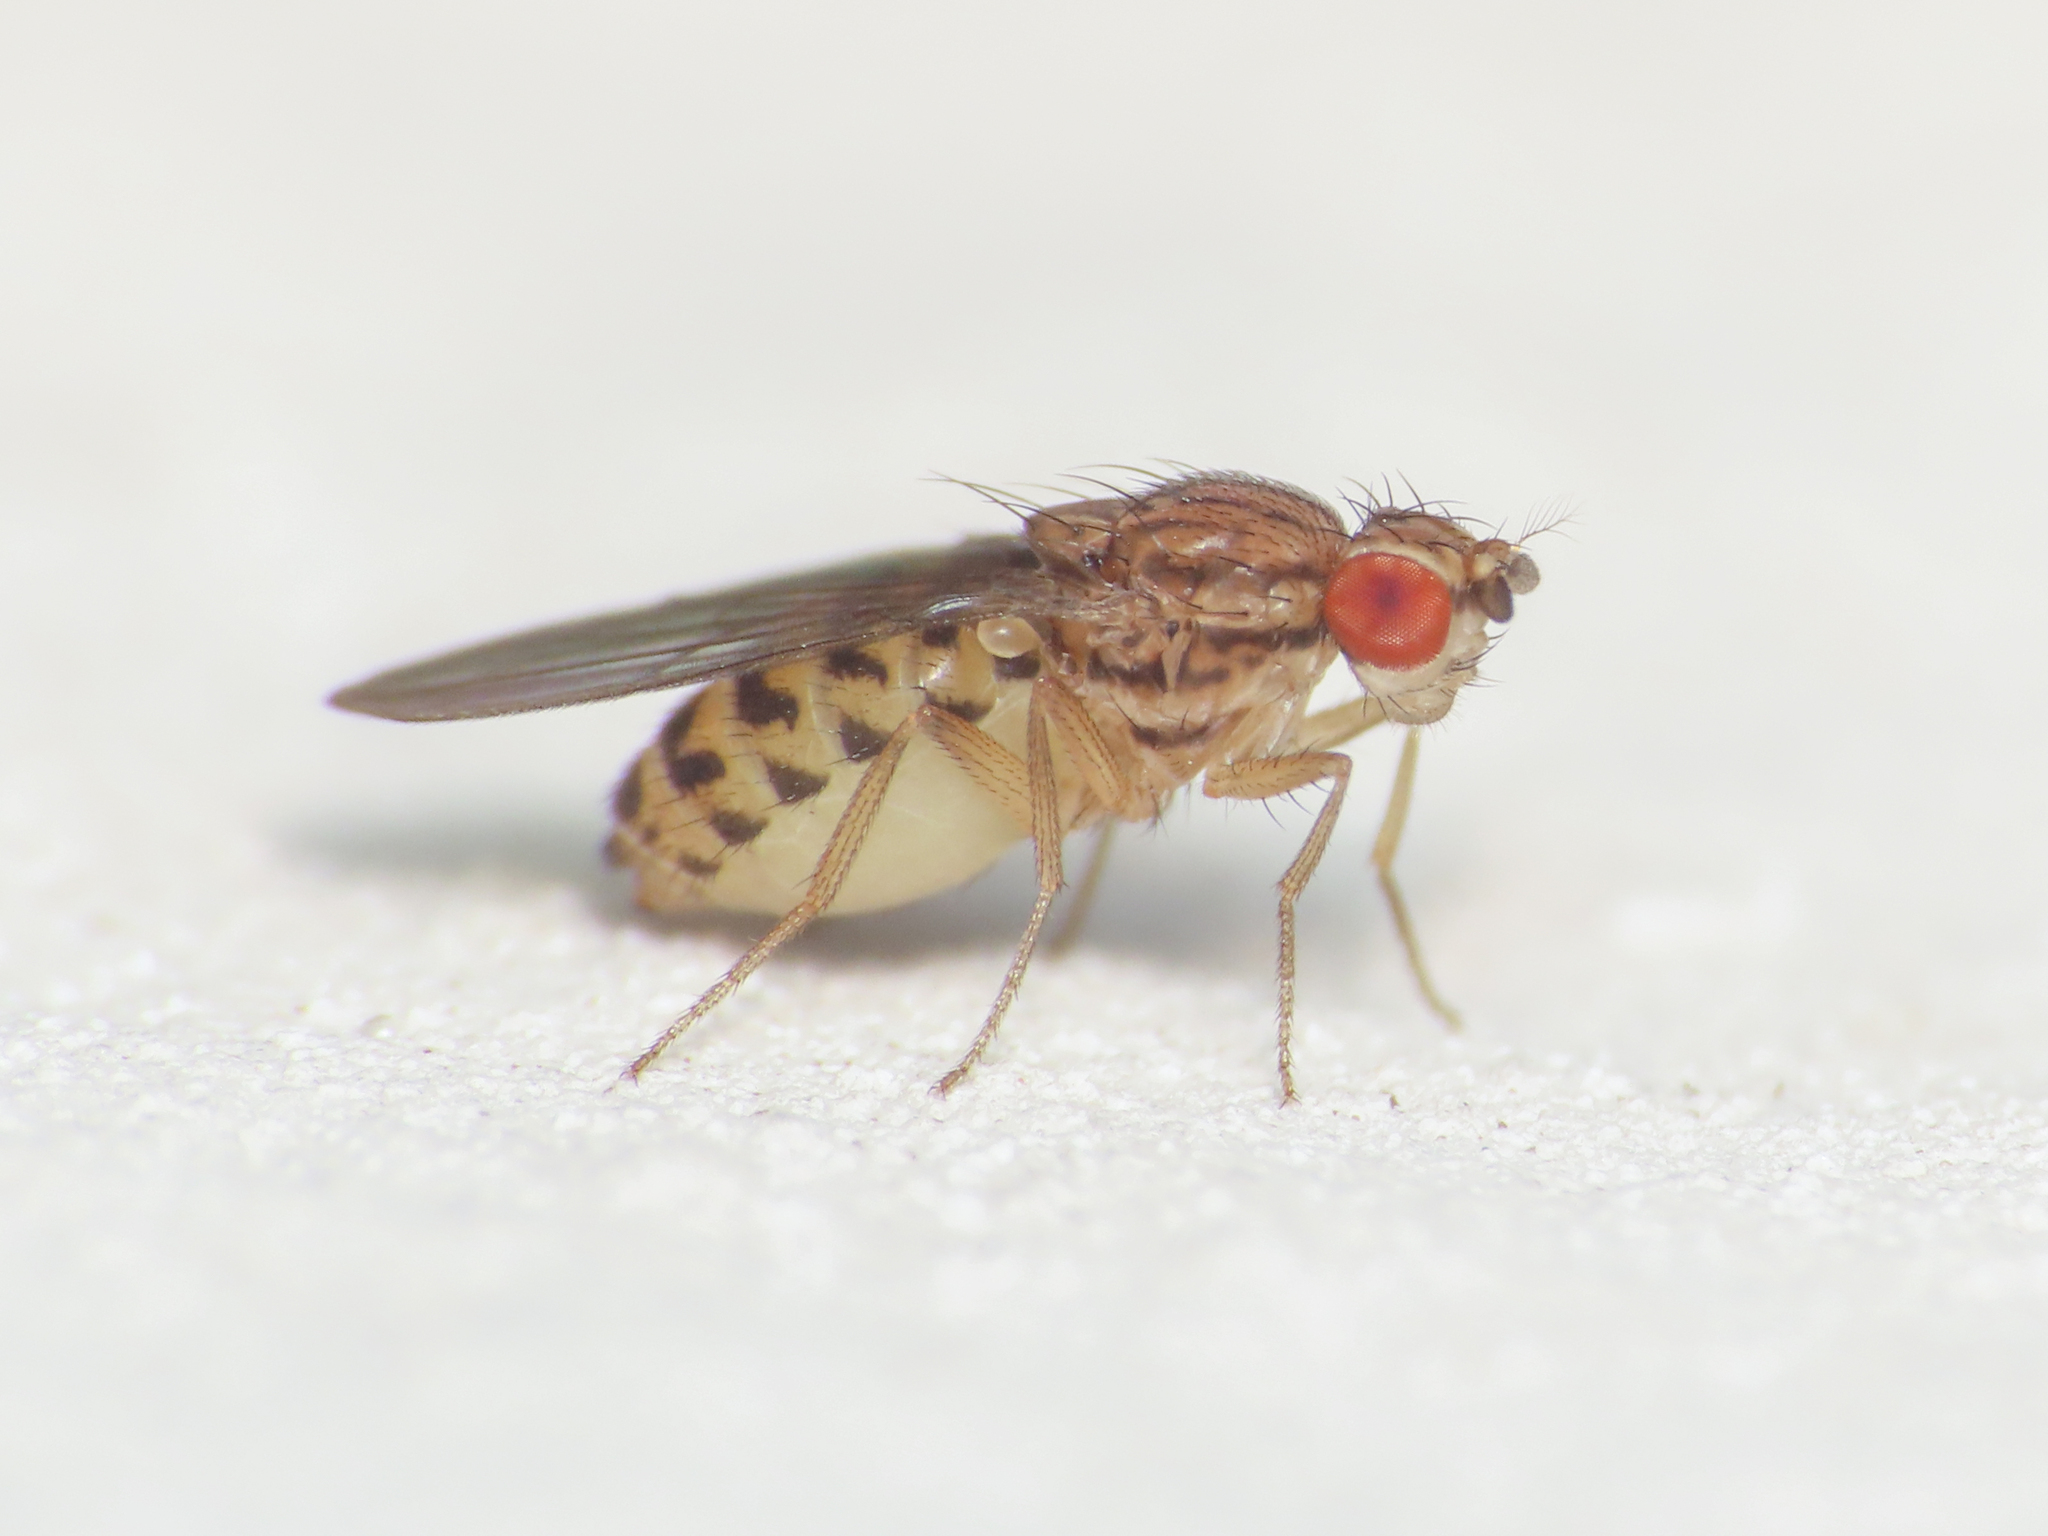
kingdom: Animalia
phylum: Arthropoda
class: Insecta
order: Diptera
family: Drosophilidae
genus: Drosophila
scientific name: Drosophila busckii
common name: Pomace fly
